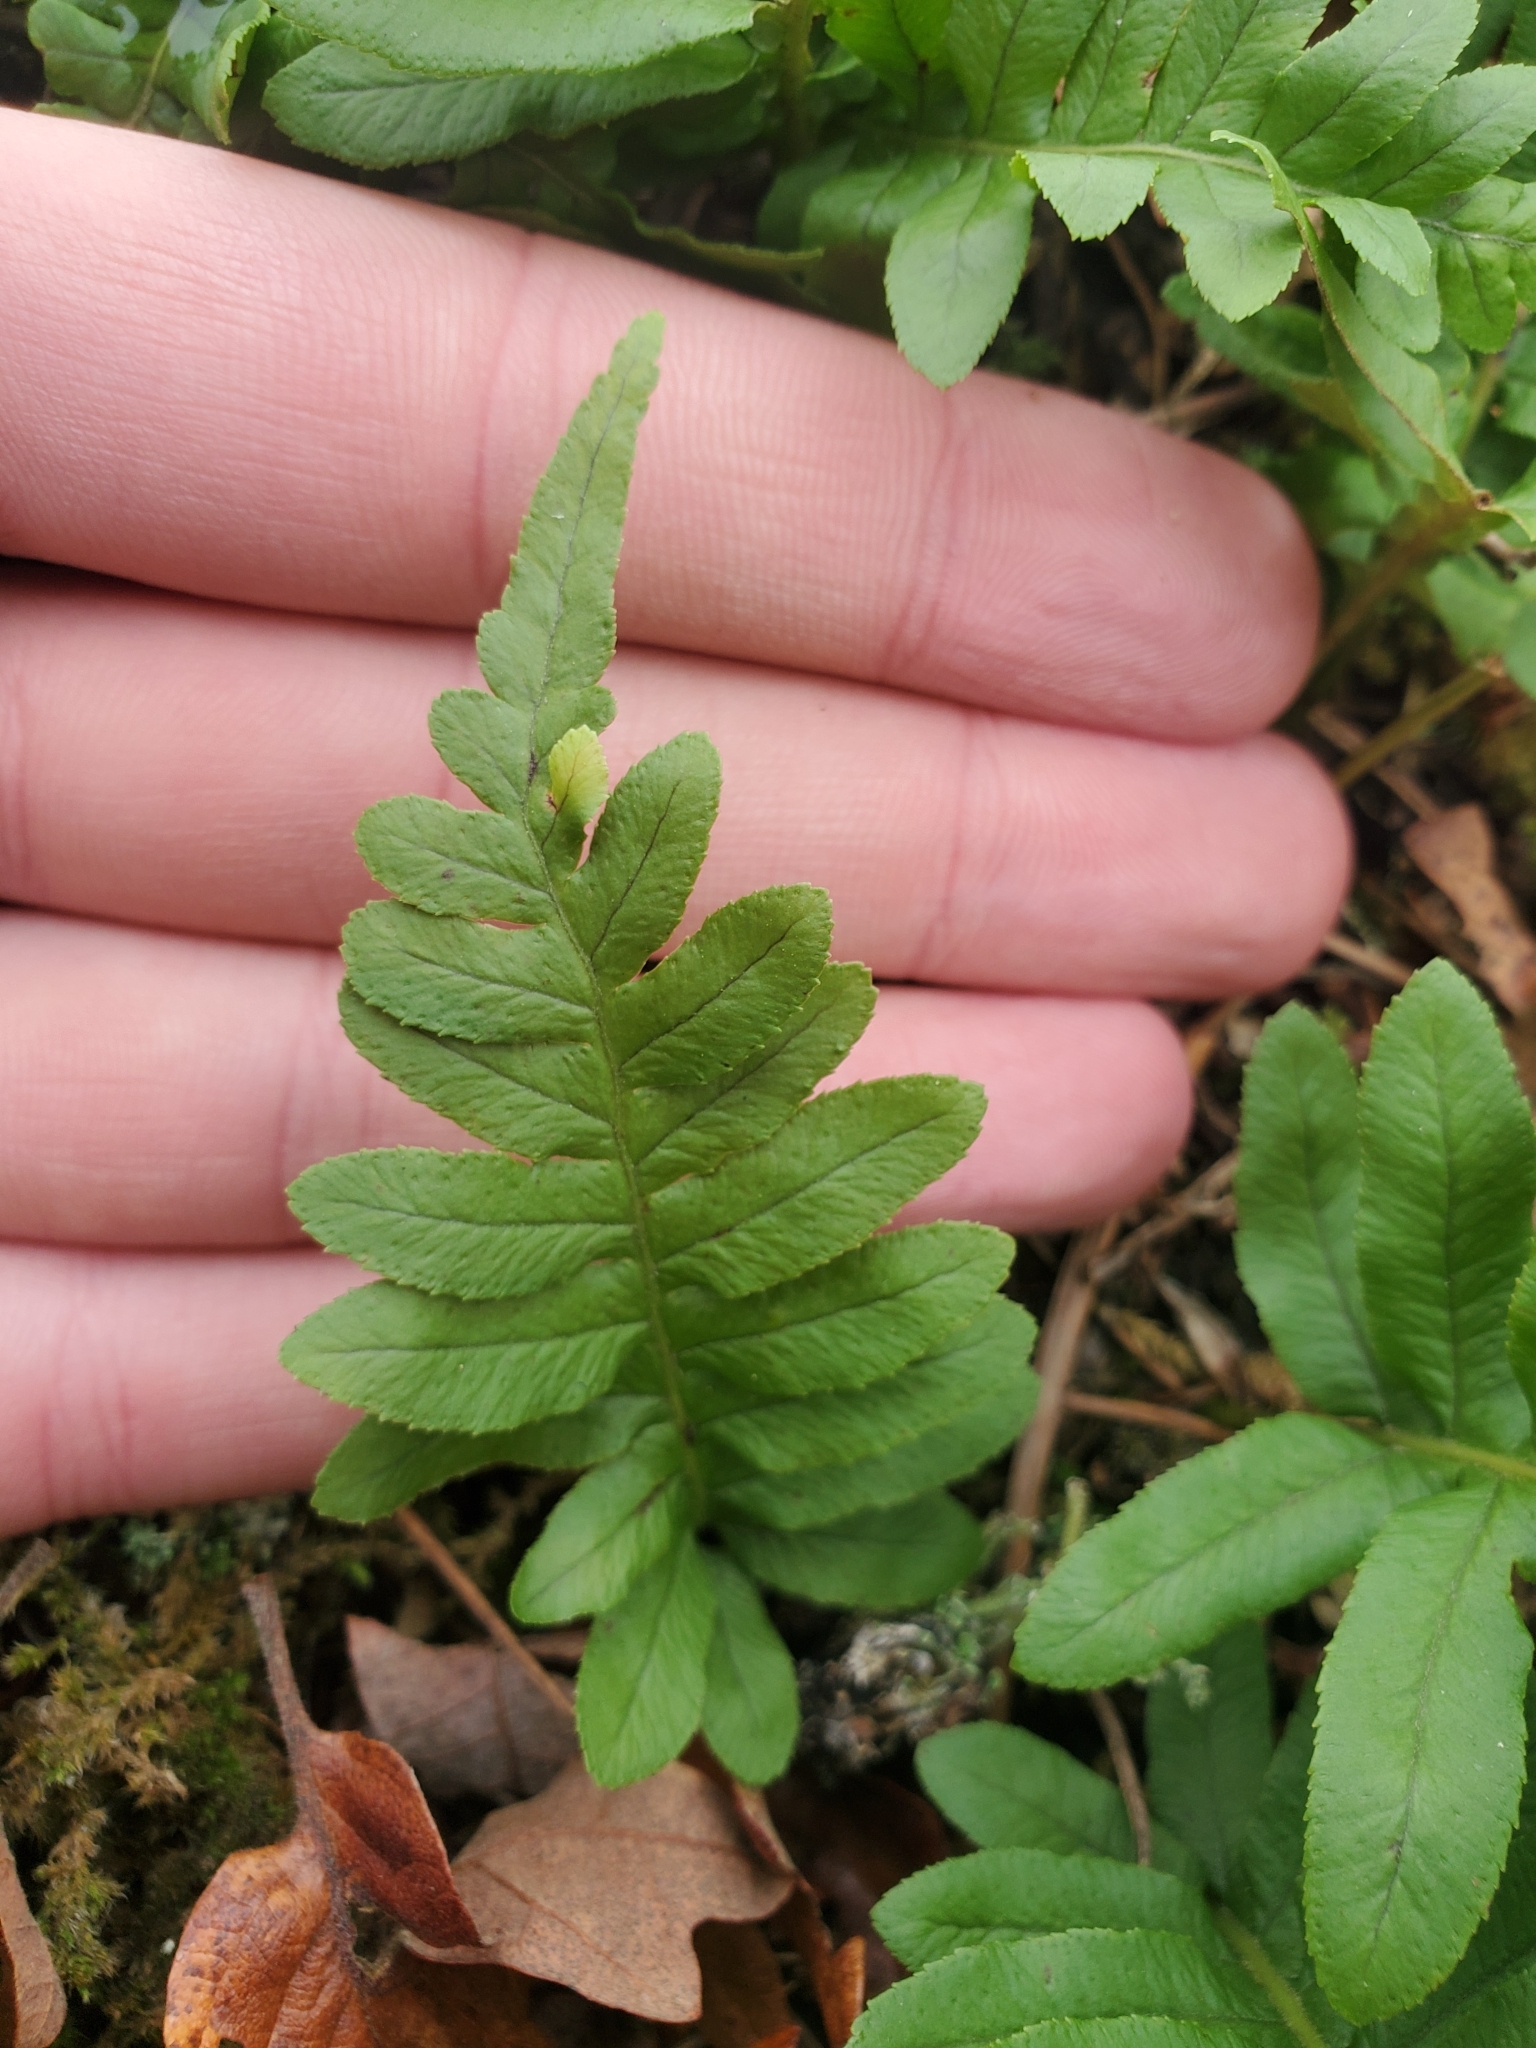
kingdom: Plantae
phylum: Tracheophyta
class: Polypodiopsida
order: Polypodiales
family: Polypodiaceae
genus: Polypodium
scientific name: Polypodium glycyrrhiza
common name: Licorice fern
